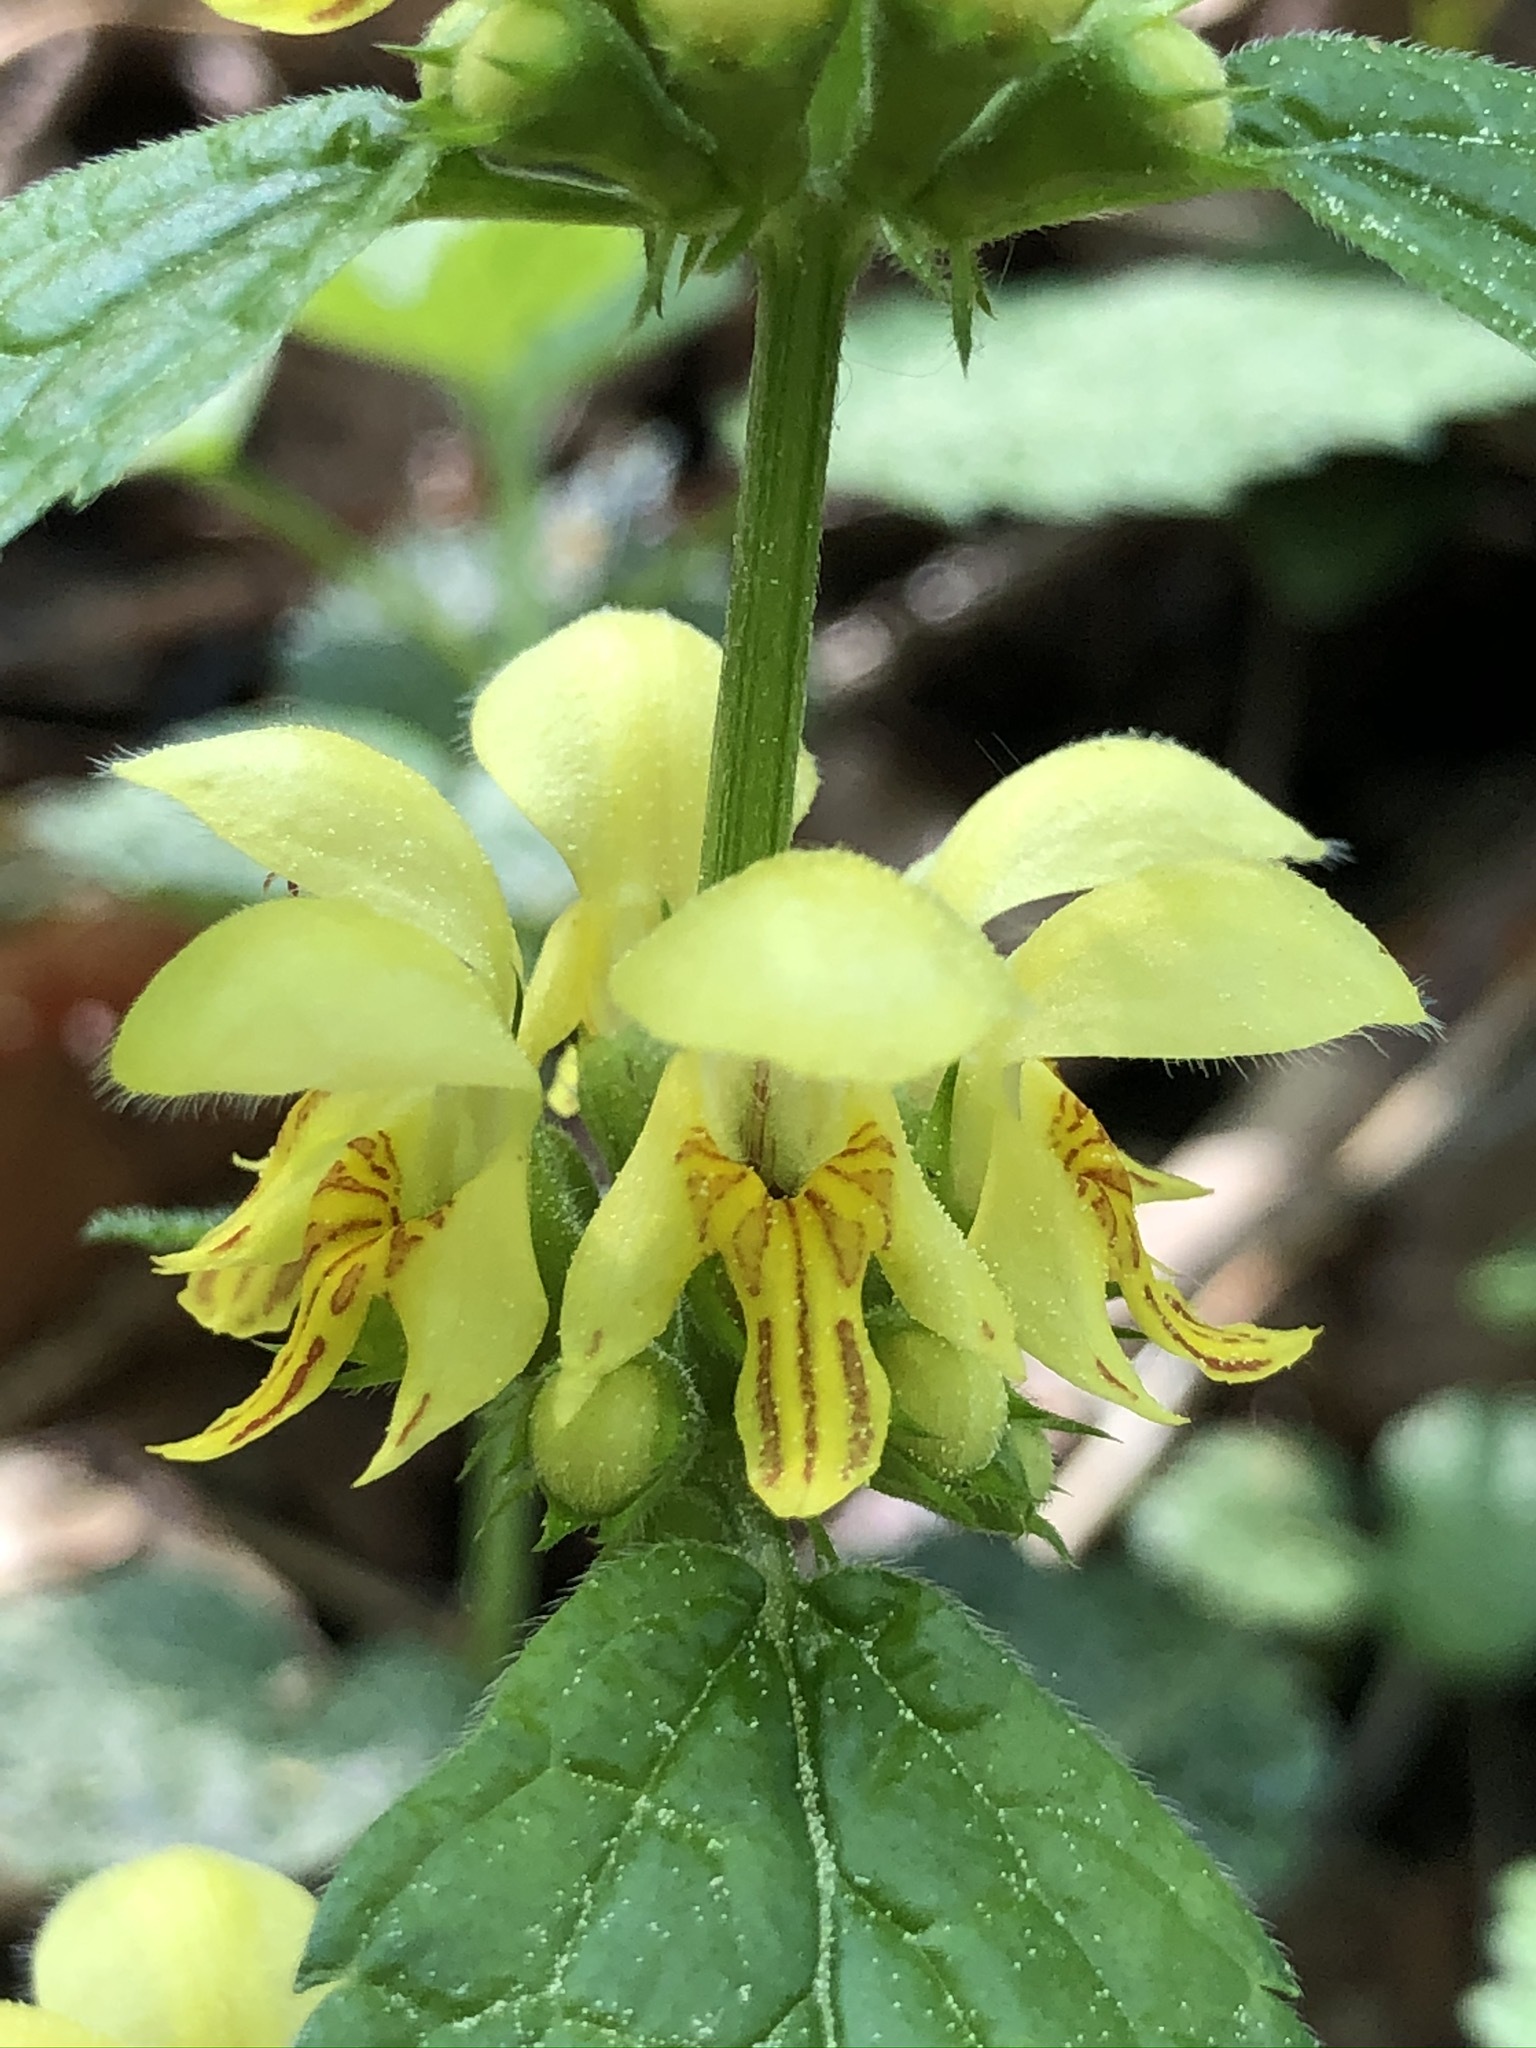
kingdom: Plantae
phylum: Tracheophyta
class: Magnoliopsida
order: Lamiales
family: Lamiaceae
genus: Lamium
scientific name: Lamium galeobdolon
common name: Yellow archangel
